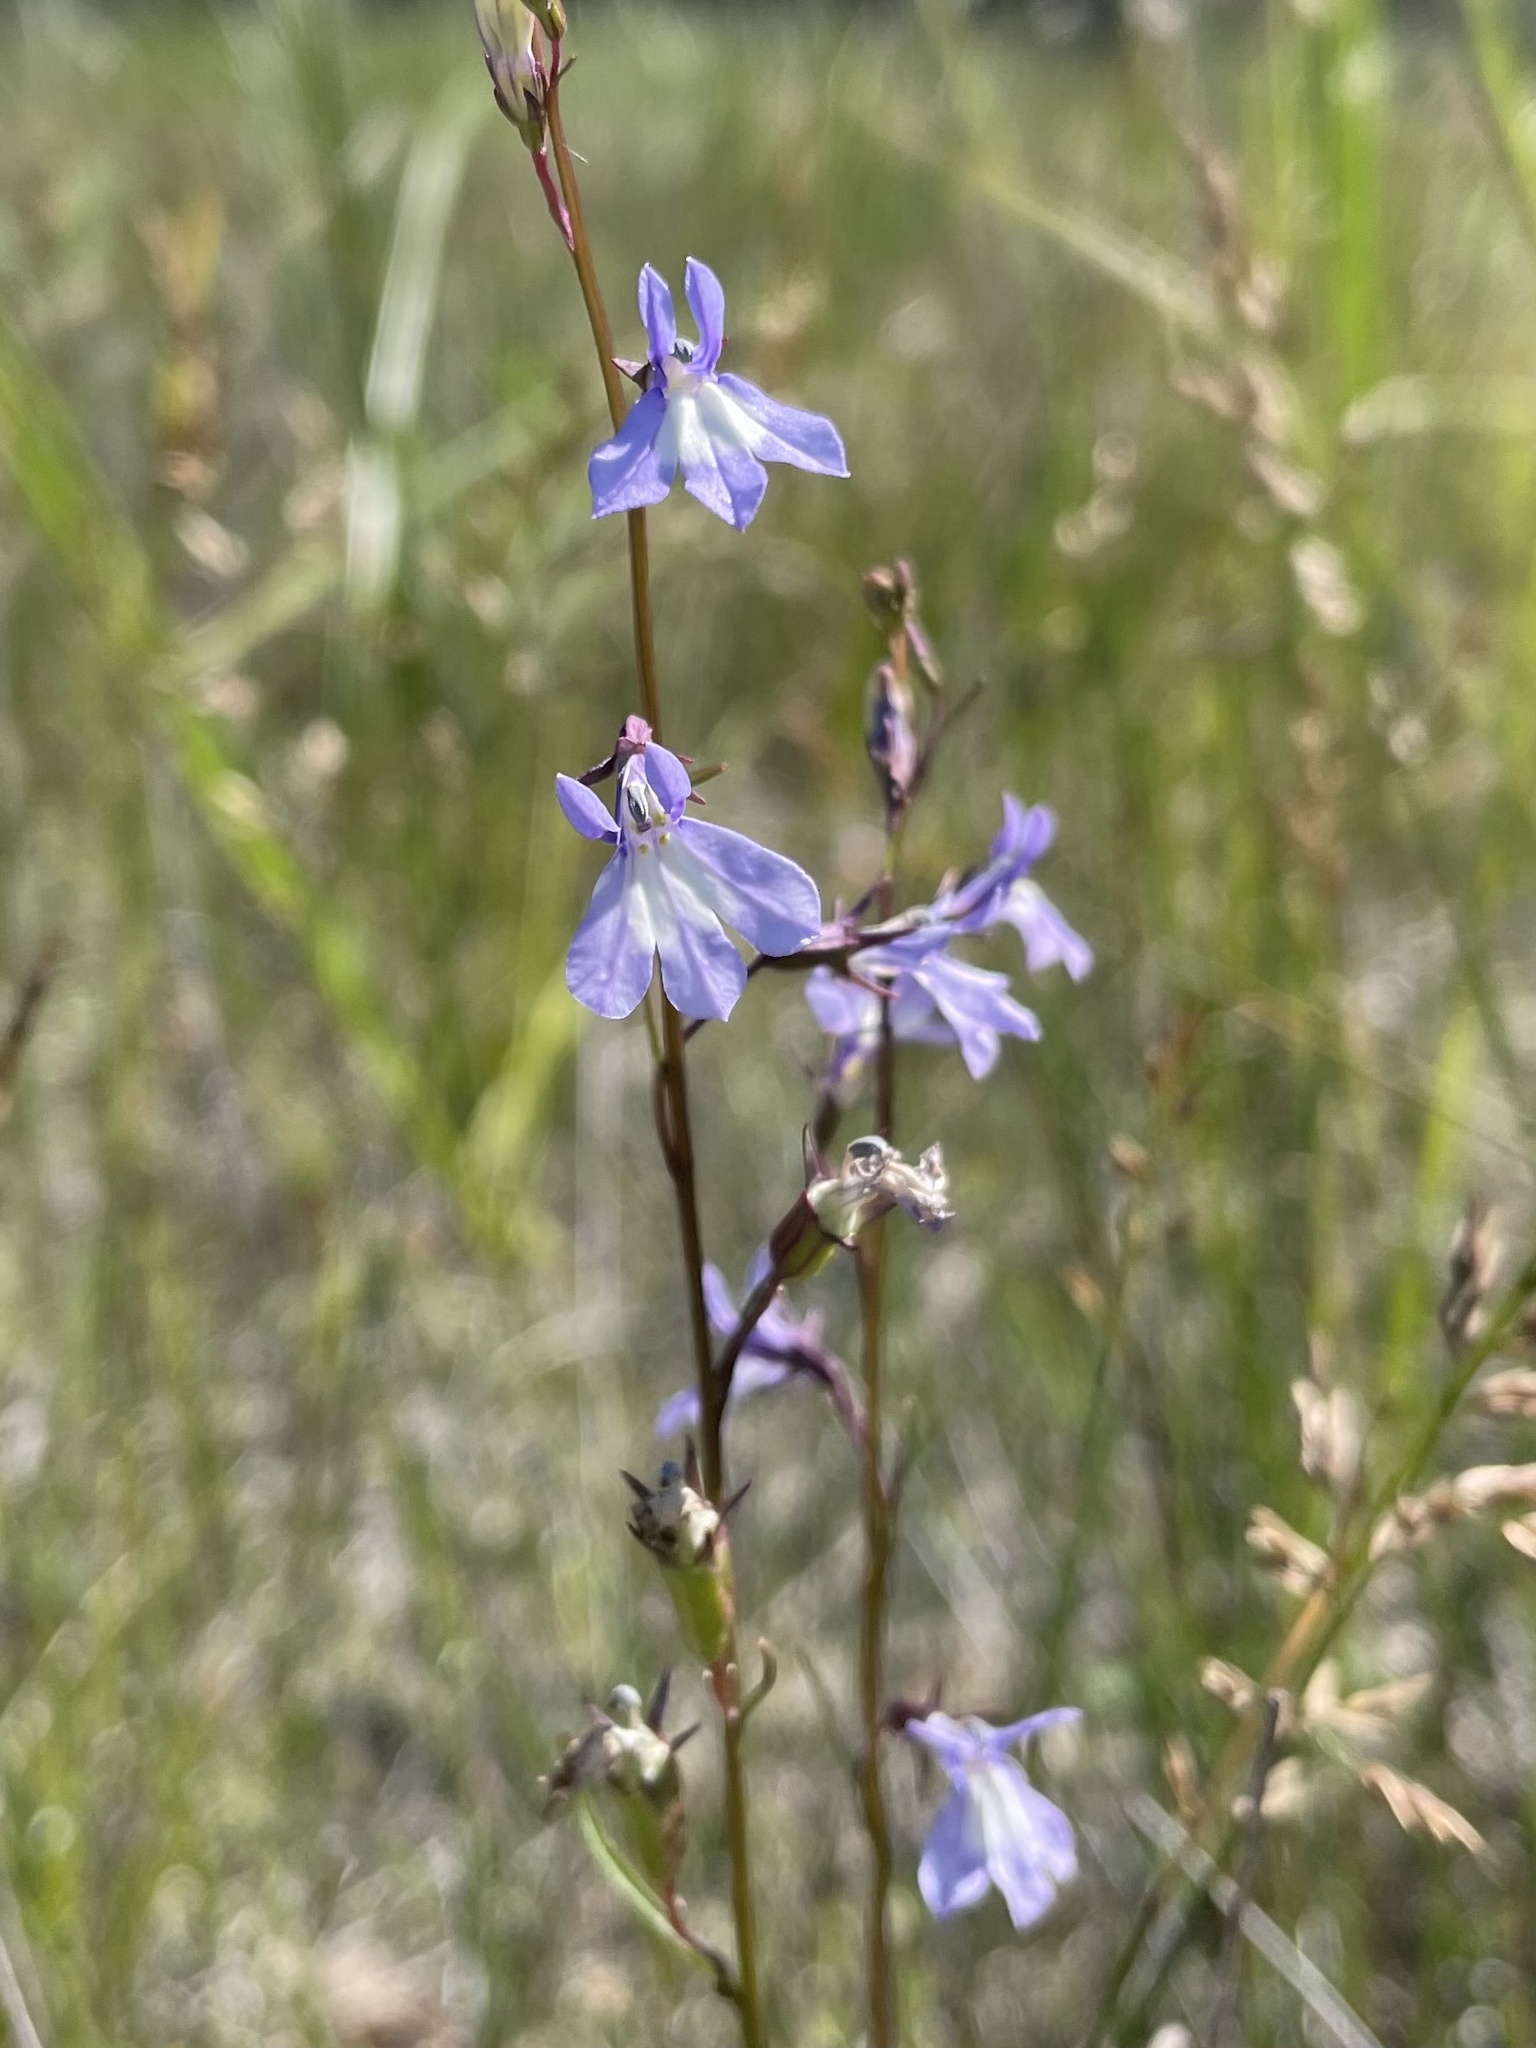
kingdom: Plantae
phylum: Tracheophyta
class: Magnoliopsida
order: Asterales
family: Campanulaceae
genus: Lobelia
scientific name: Lobelia kalmii
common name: Kalm's lobelia
